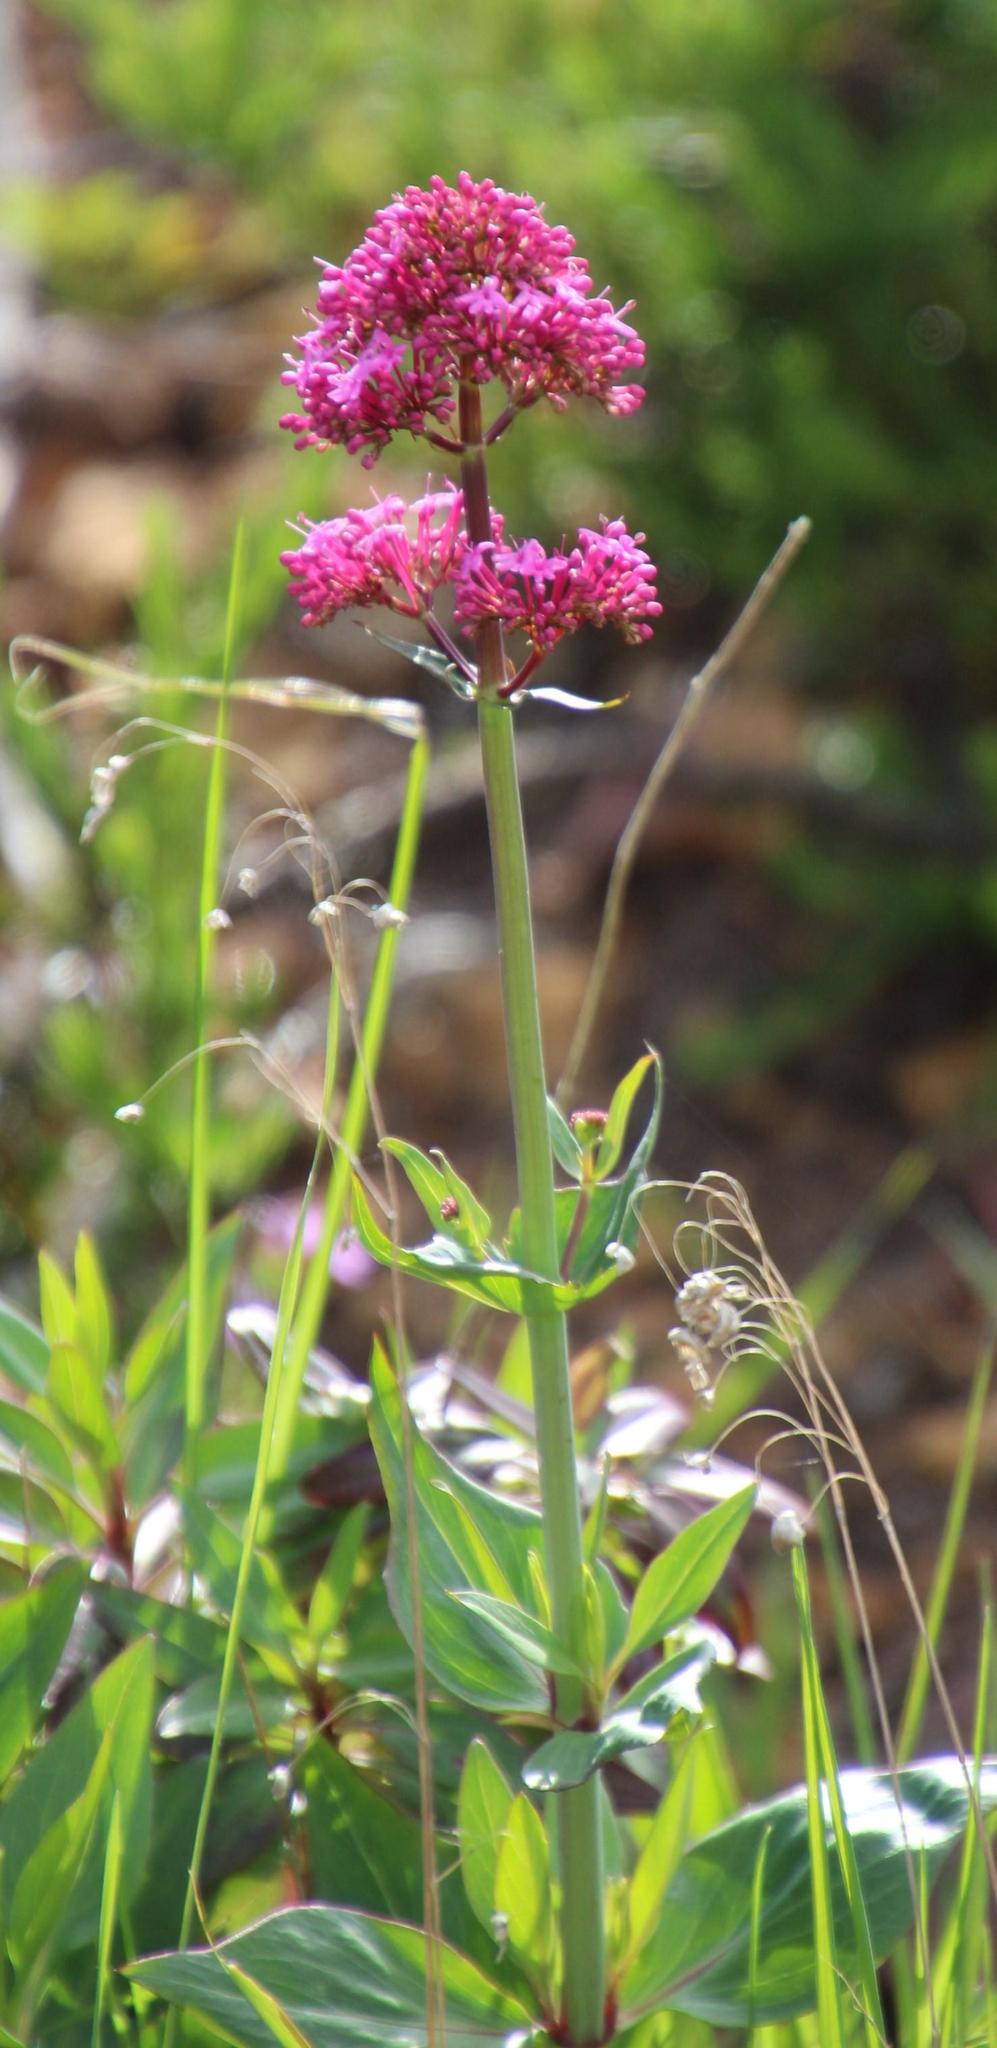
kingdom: Plantae
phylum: Tracheophyta
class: Magnoliopsida
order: Dipsacales
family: Caprifoliaceae
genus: Centranthus
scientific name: Centranthus ruber
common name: Red valerian
